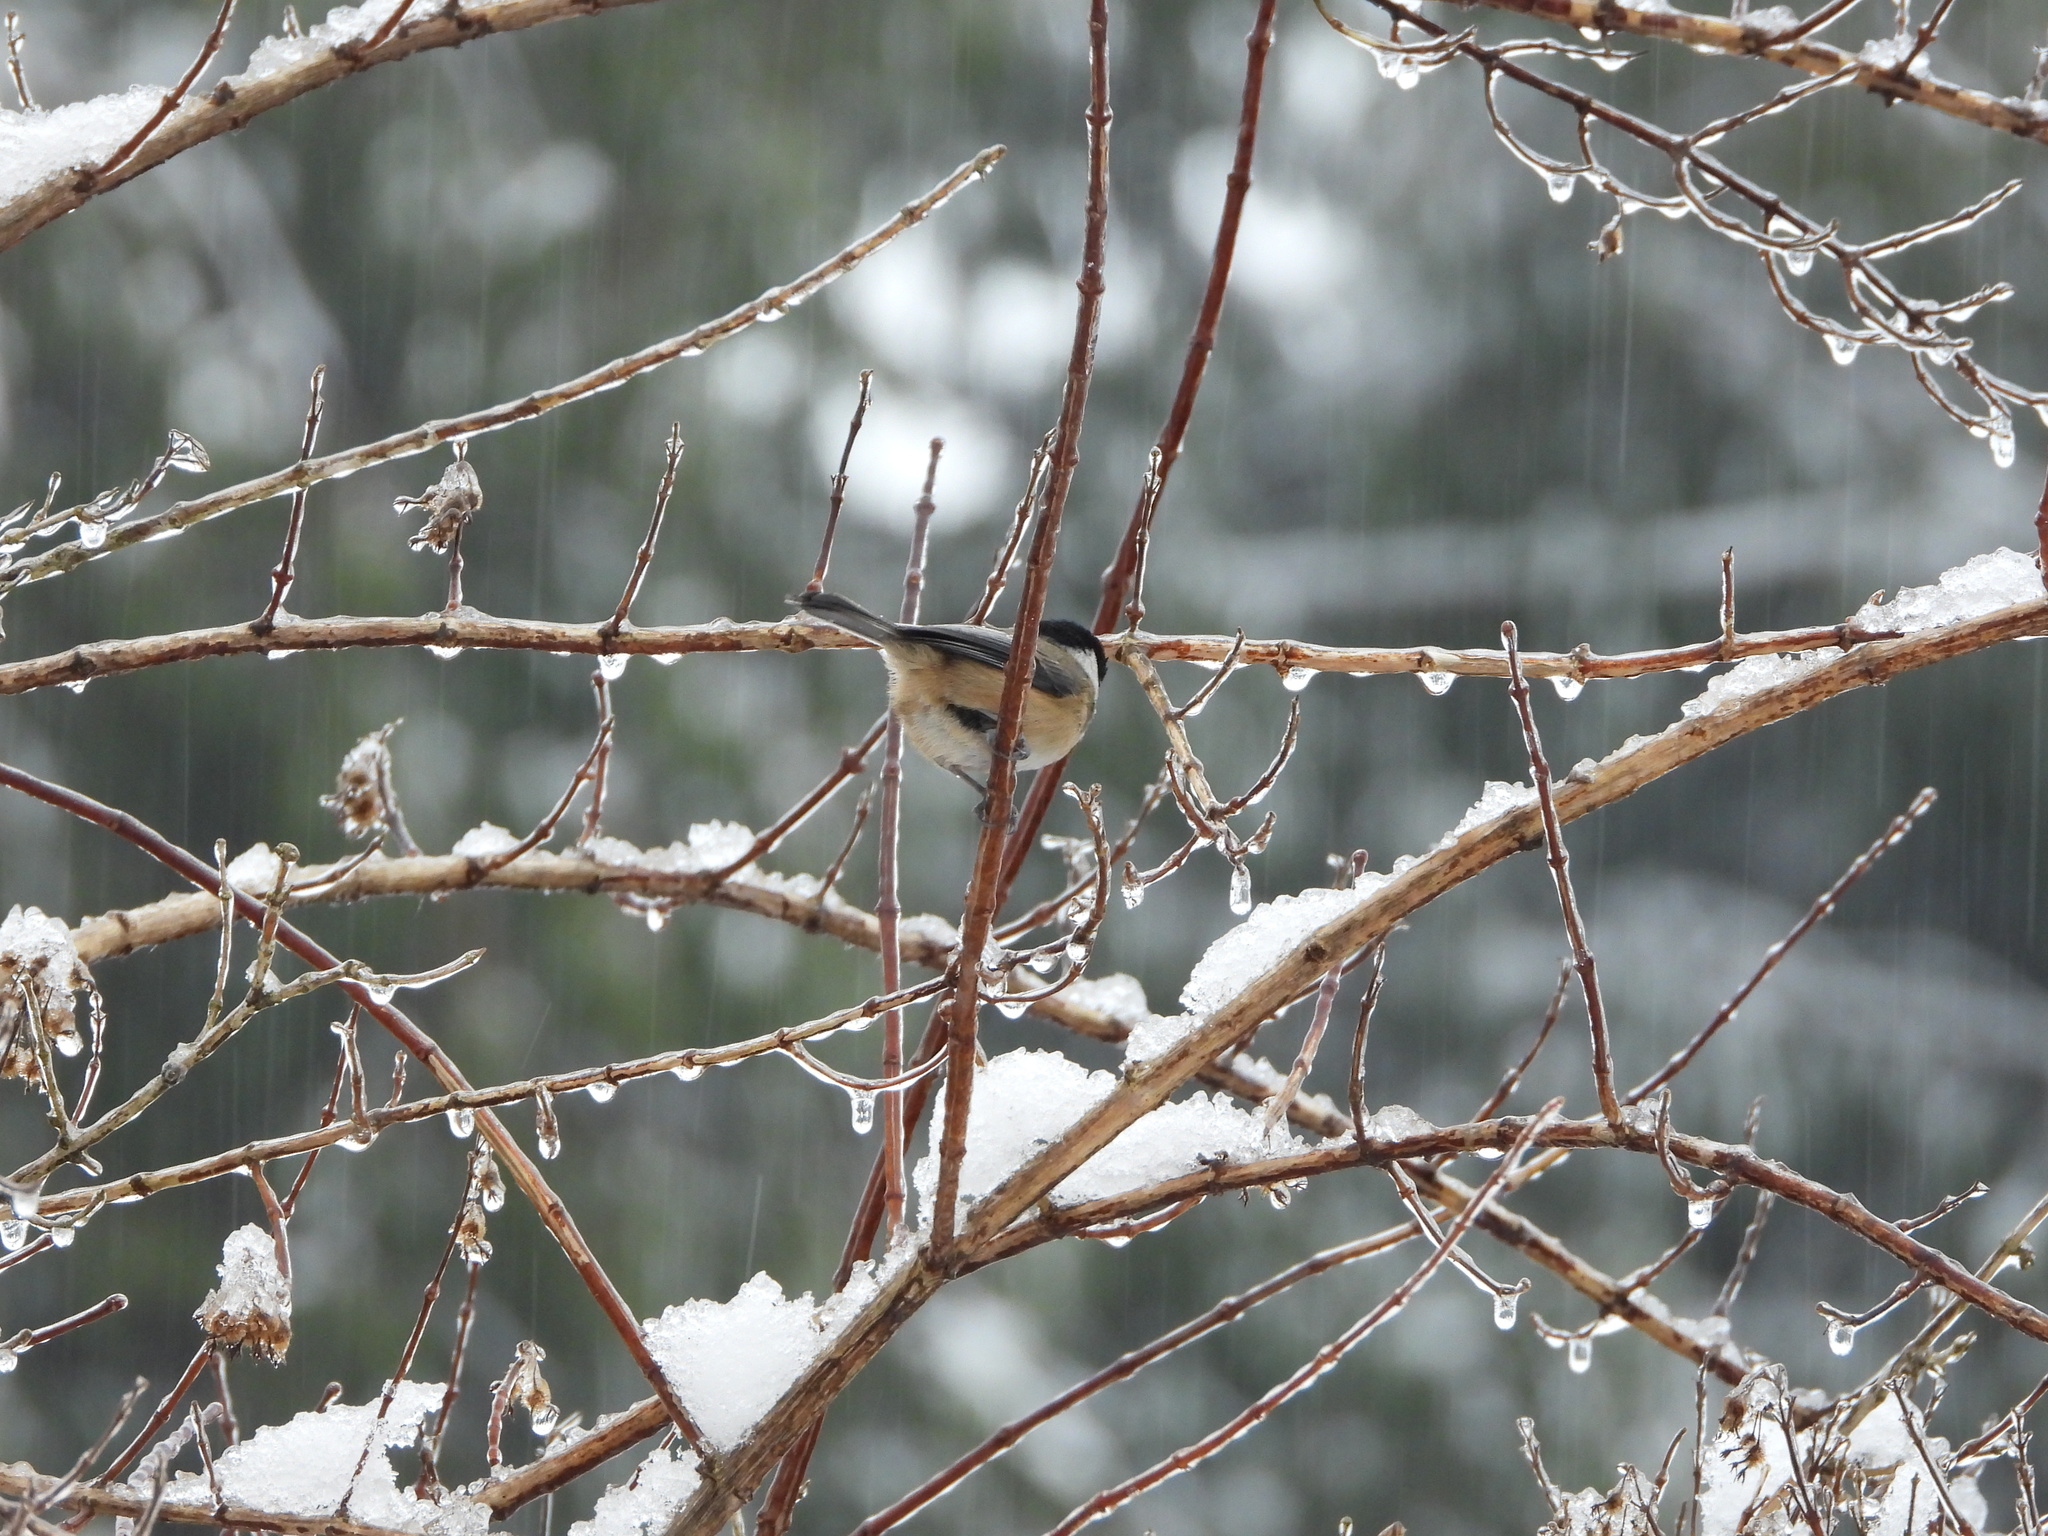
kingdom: Animalia
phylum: Chordata
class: Aves
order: Passeriformes
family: Paridae
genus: Poecile
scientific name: Poecile atricapillus
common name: Black-capped chickadee
